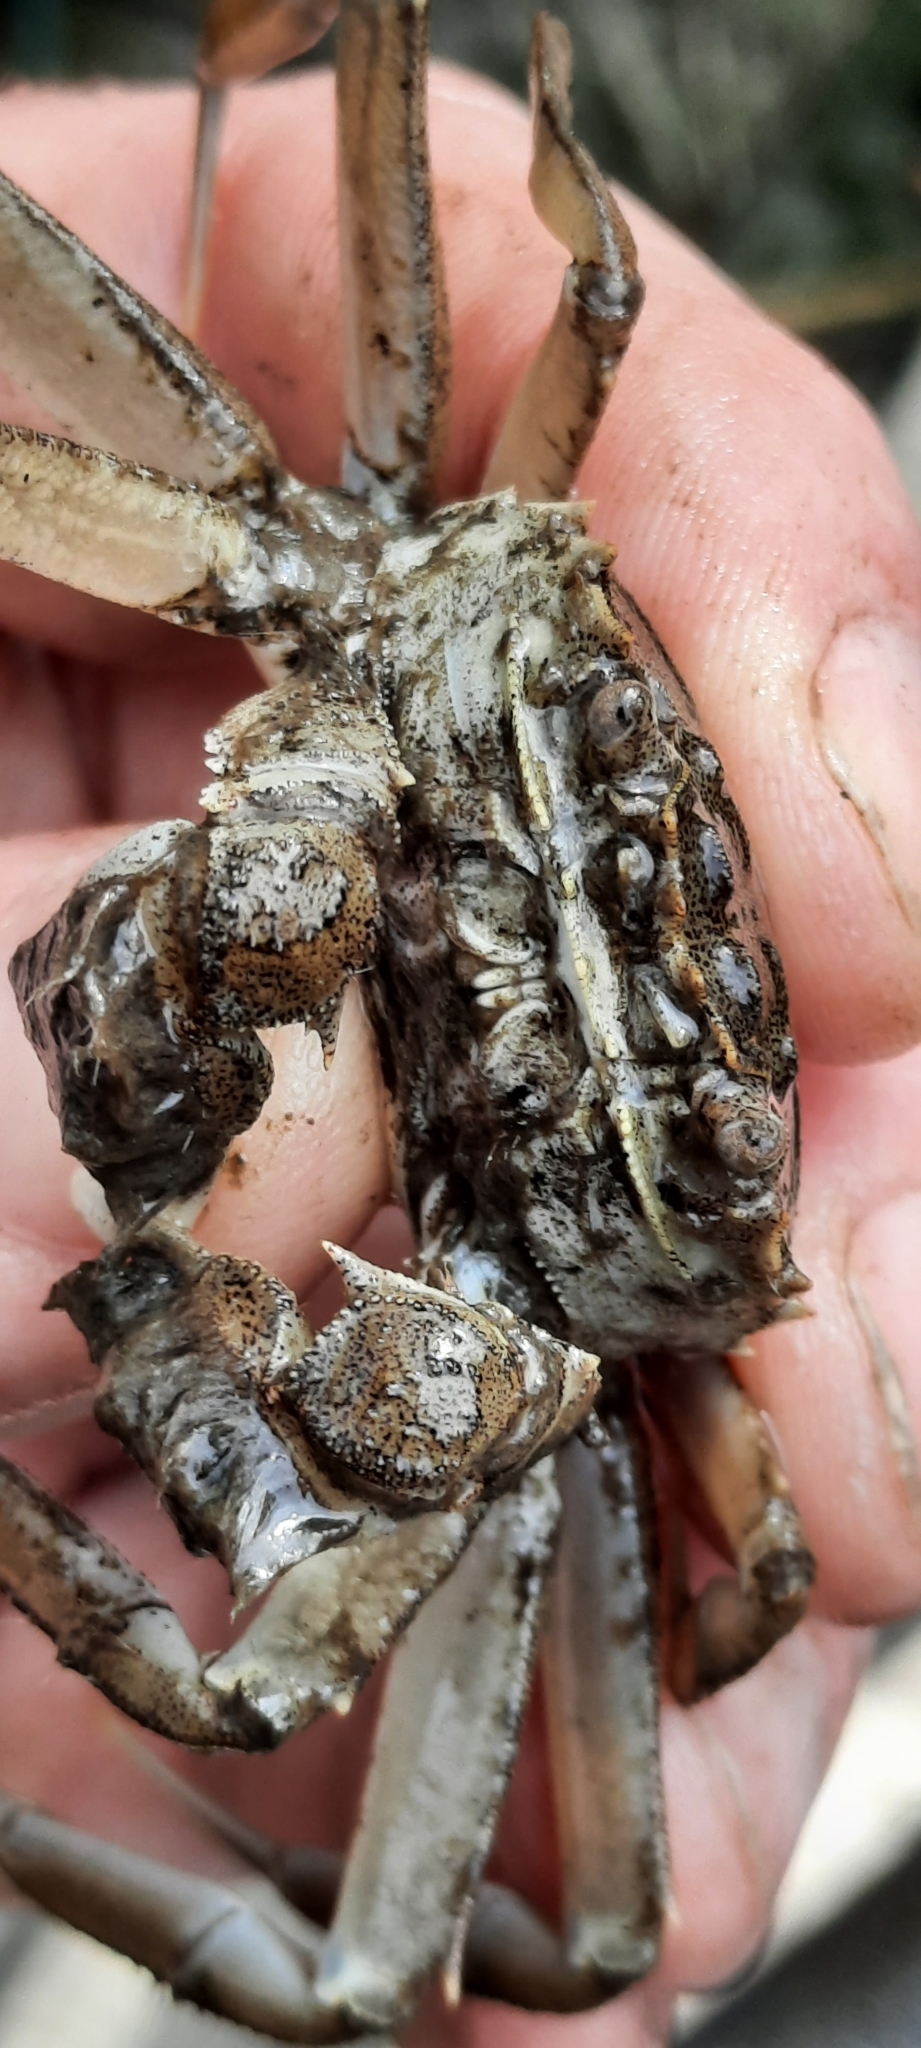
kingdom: Animalia
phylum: Arthropoda
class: Malacostraca
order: Decapoda
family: Varunidae
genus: Eriocheir
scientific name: Eriocheir sinensis
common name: Chinese mitten crab
